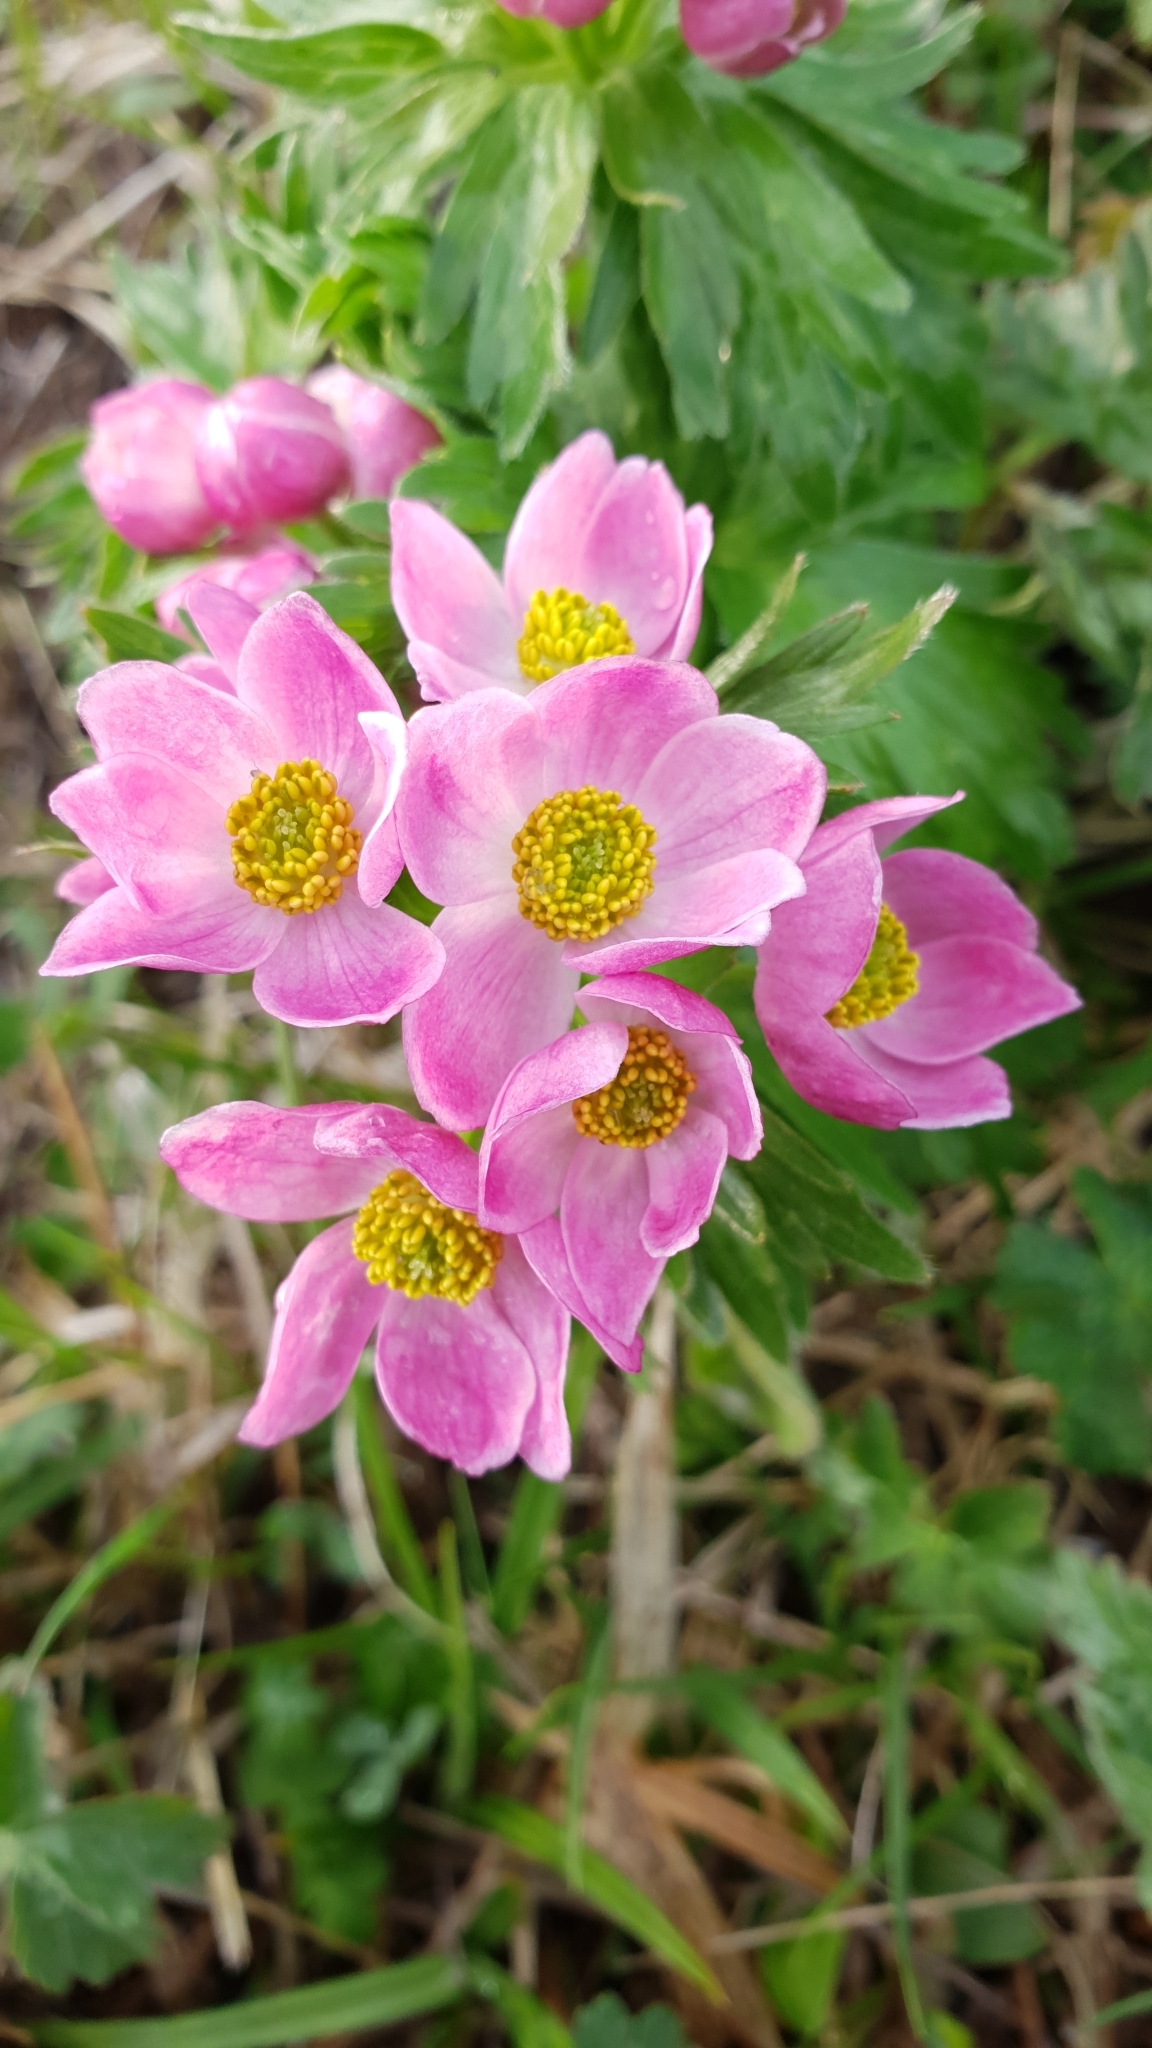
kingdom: Plantae
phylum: Tracheophyta
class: Magnoliopsida
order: Ranunculales
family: Ranunculaceae
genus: Anemonastrum
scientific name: Anemonastrum narcissiflorum
